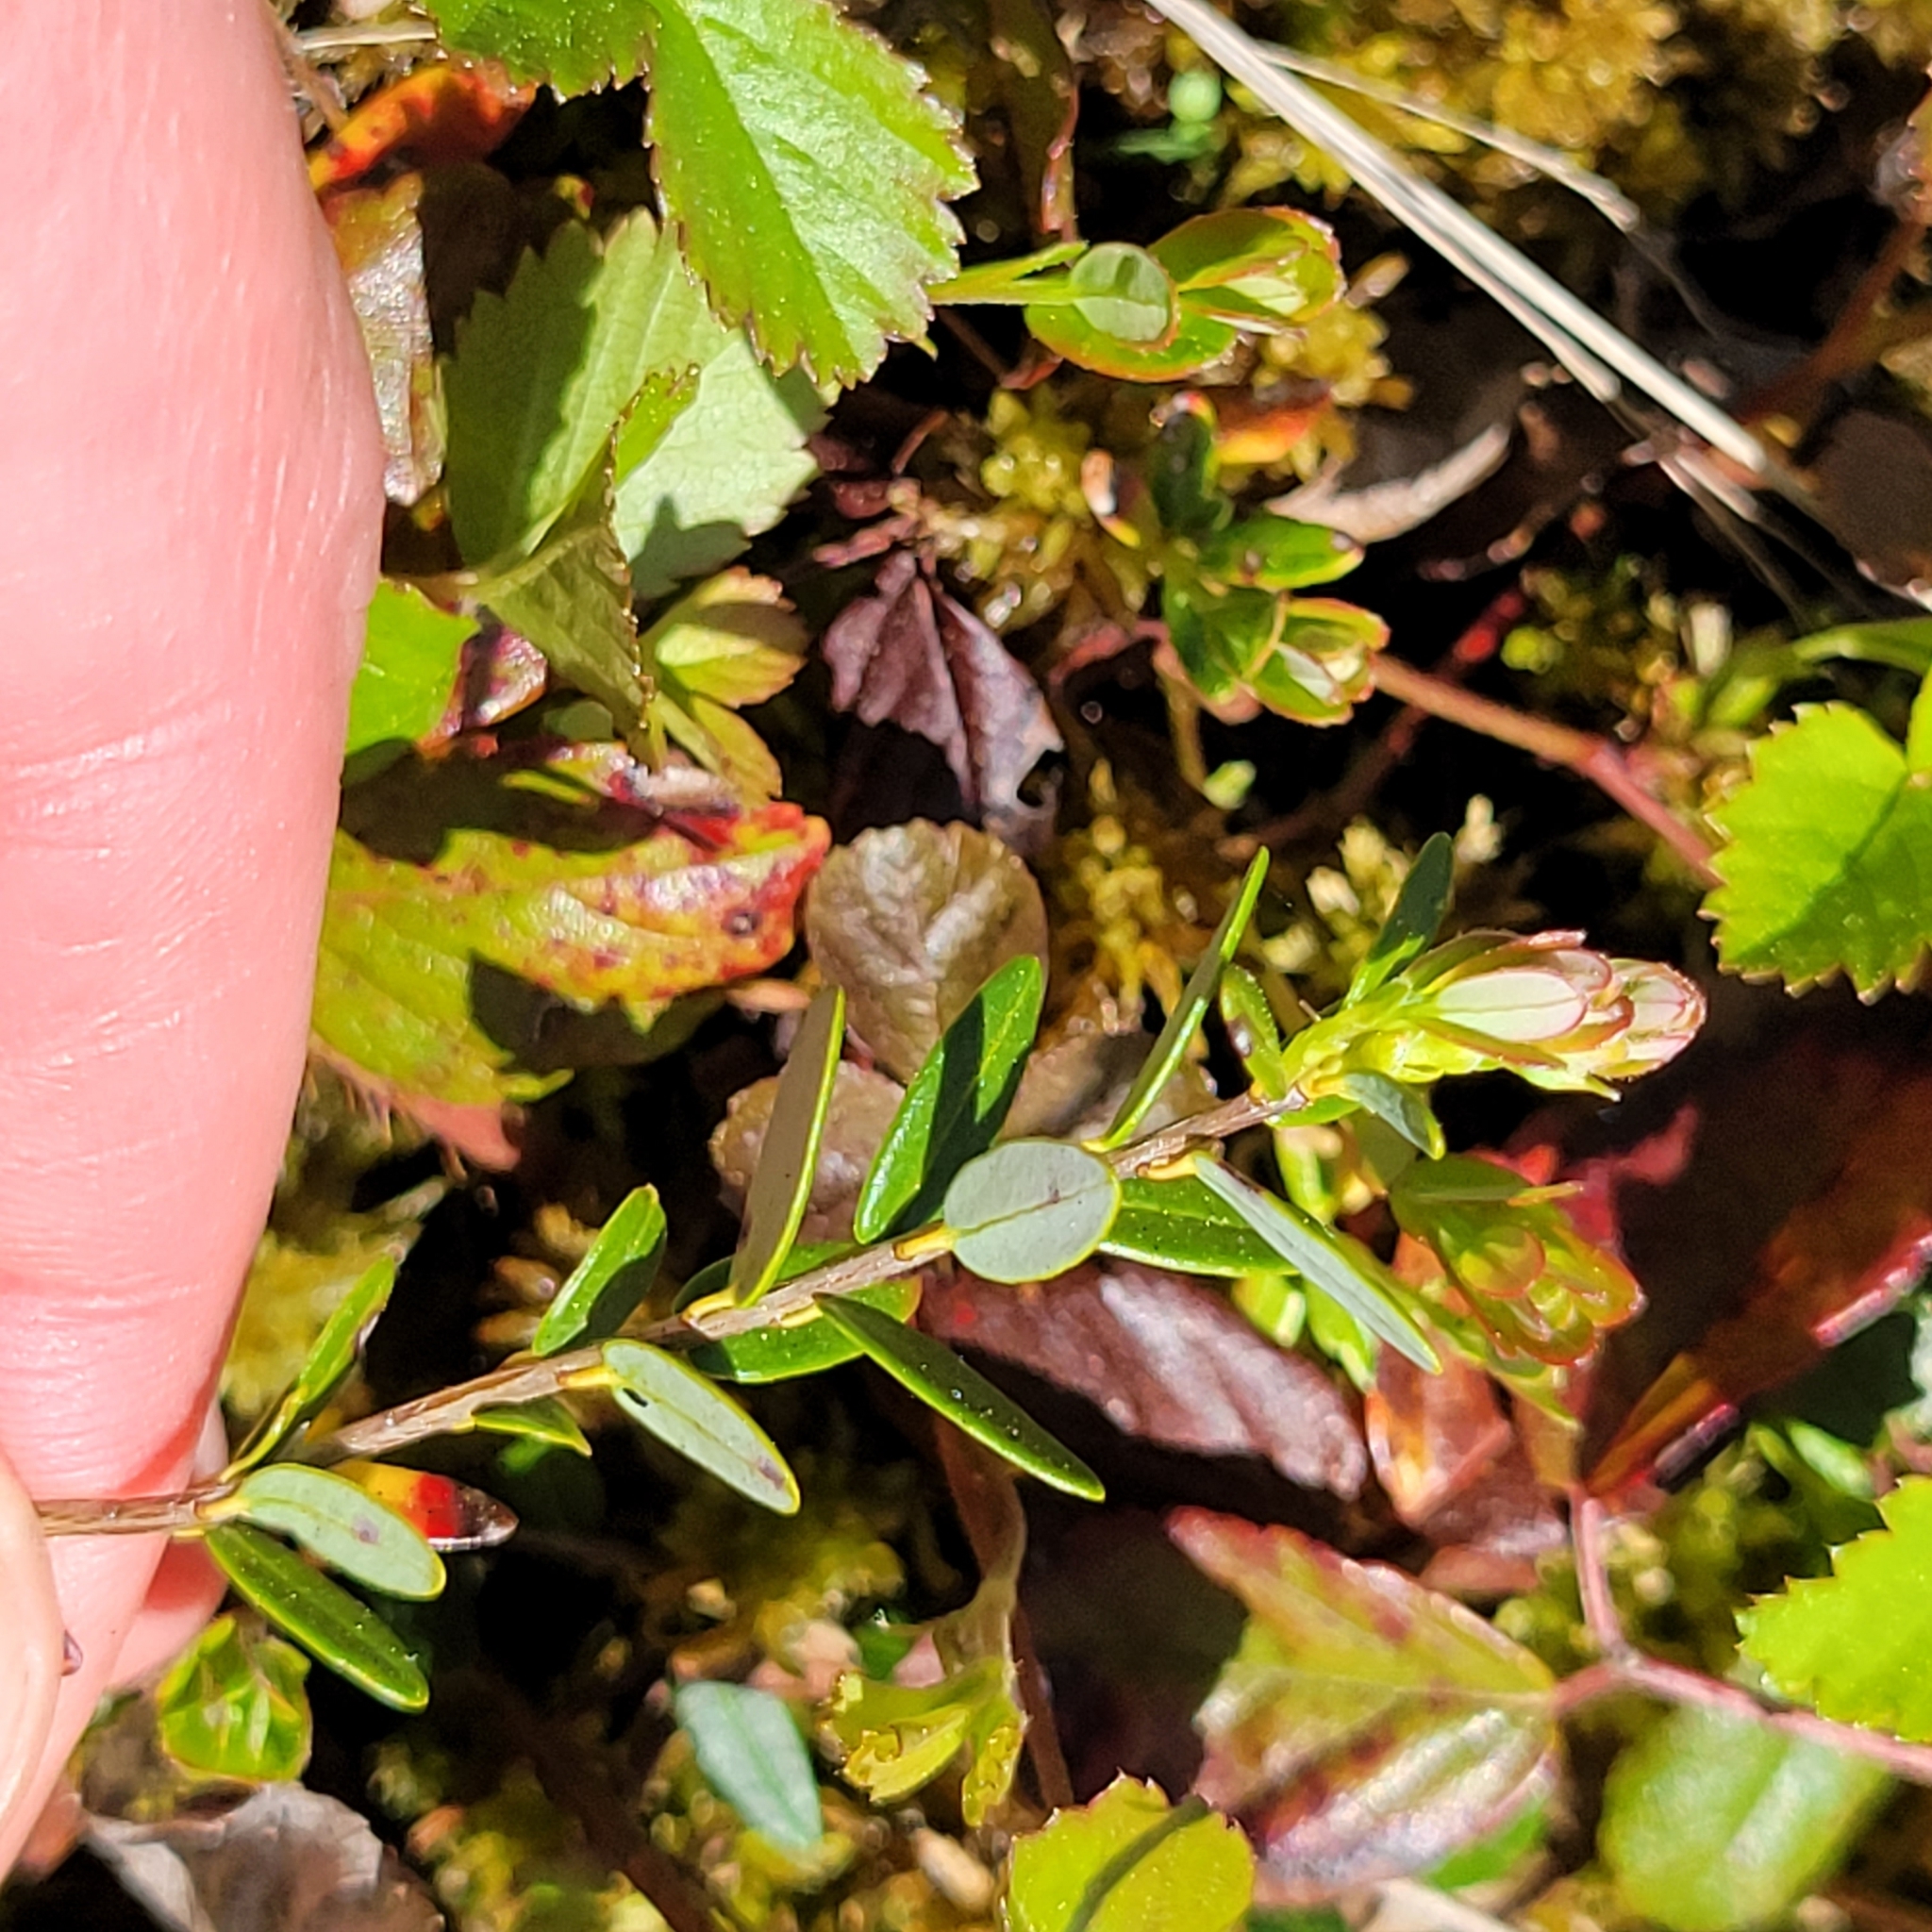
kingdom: Plantae
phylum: Tracheophyta
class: Magnoliopsida
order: Ericales
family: Ericaceae
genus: Vaccinium
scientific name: Vaccinium macrocarpon
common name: American cranberry
